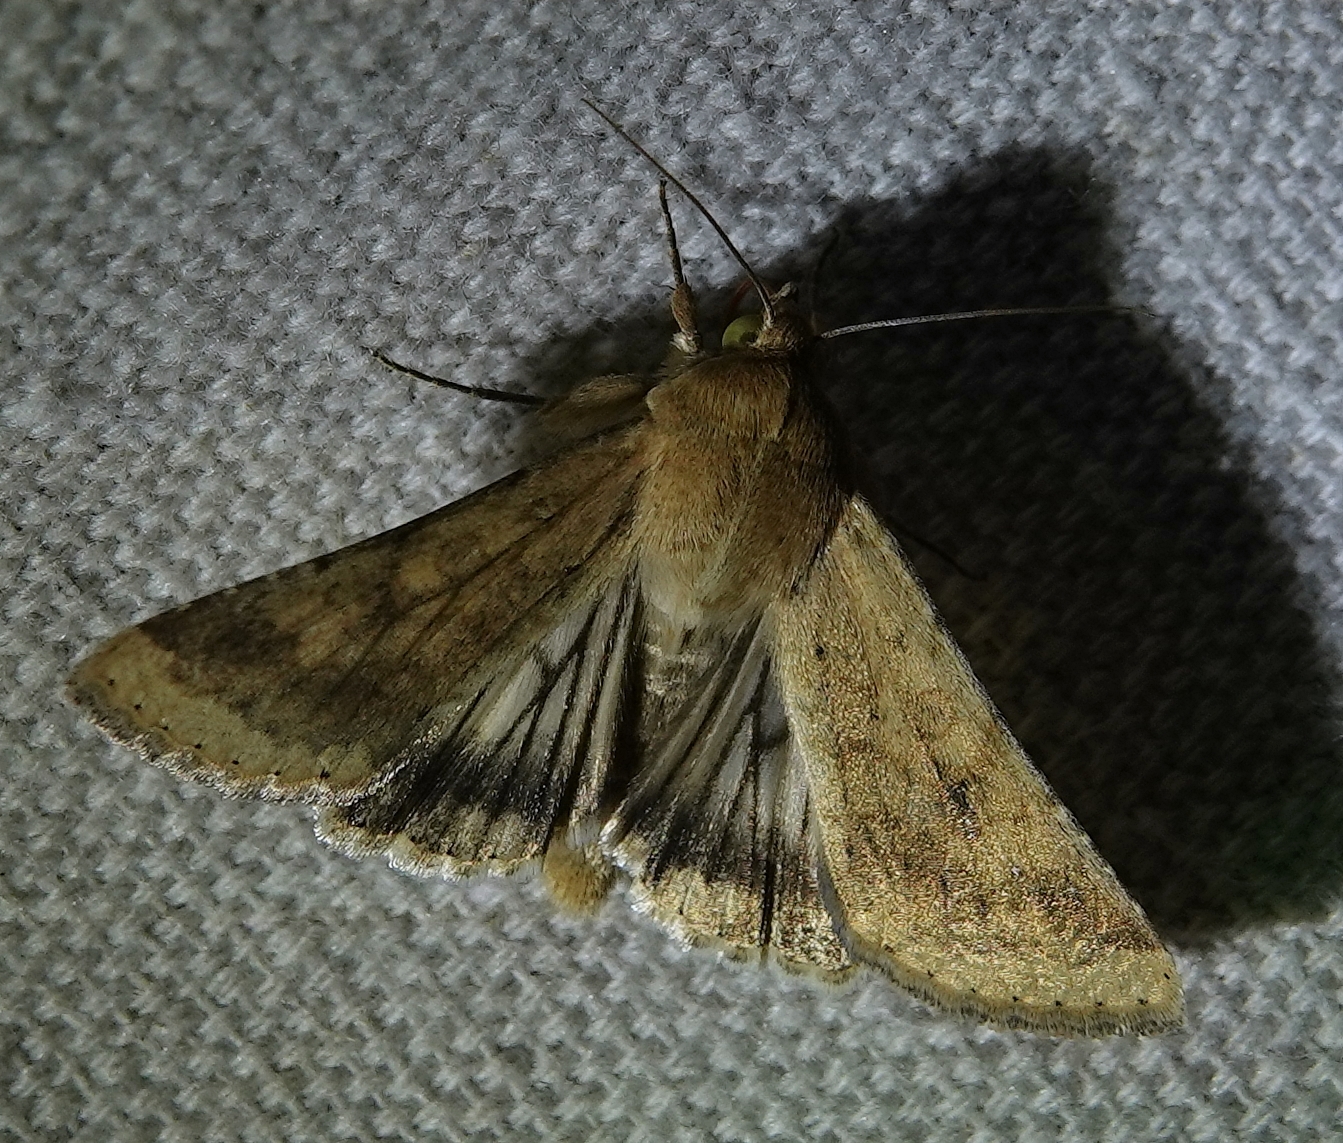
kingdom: Animalia
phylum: Arthropoda
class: Insecta
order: Lepidoptera
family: Noctuidae
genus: Helicoverpa
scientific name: Helicoverpa zea
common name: Bollworm
